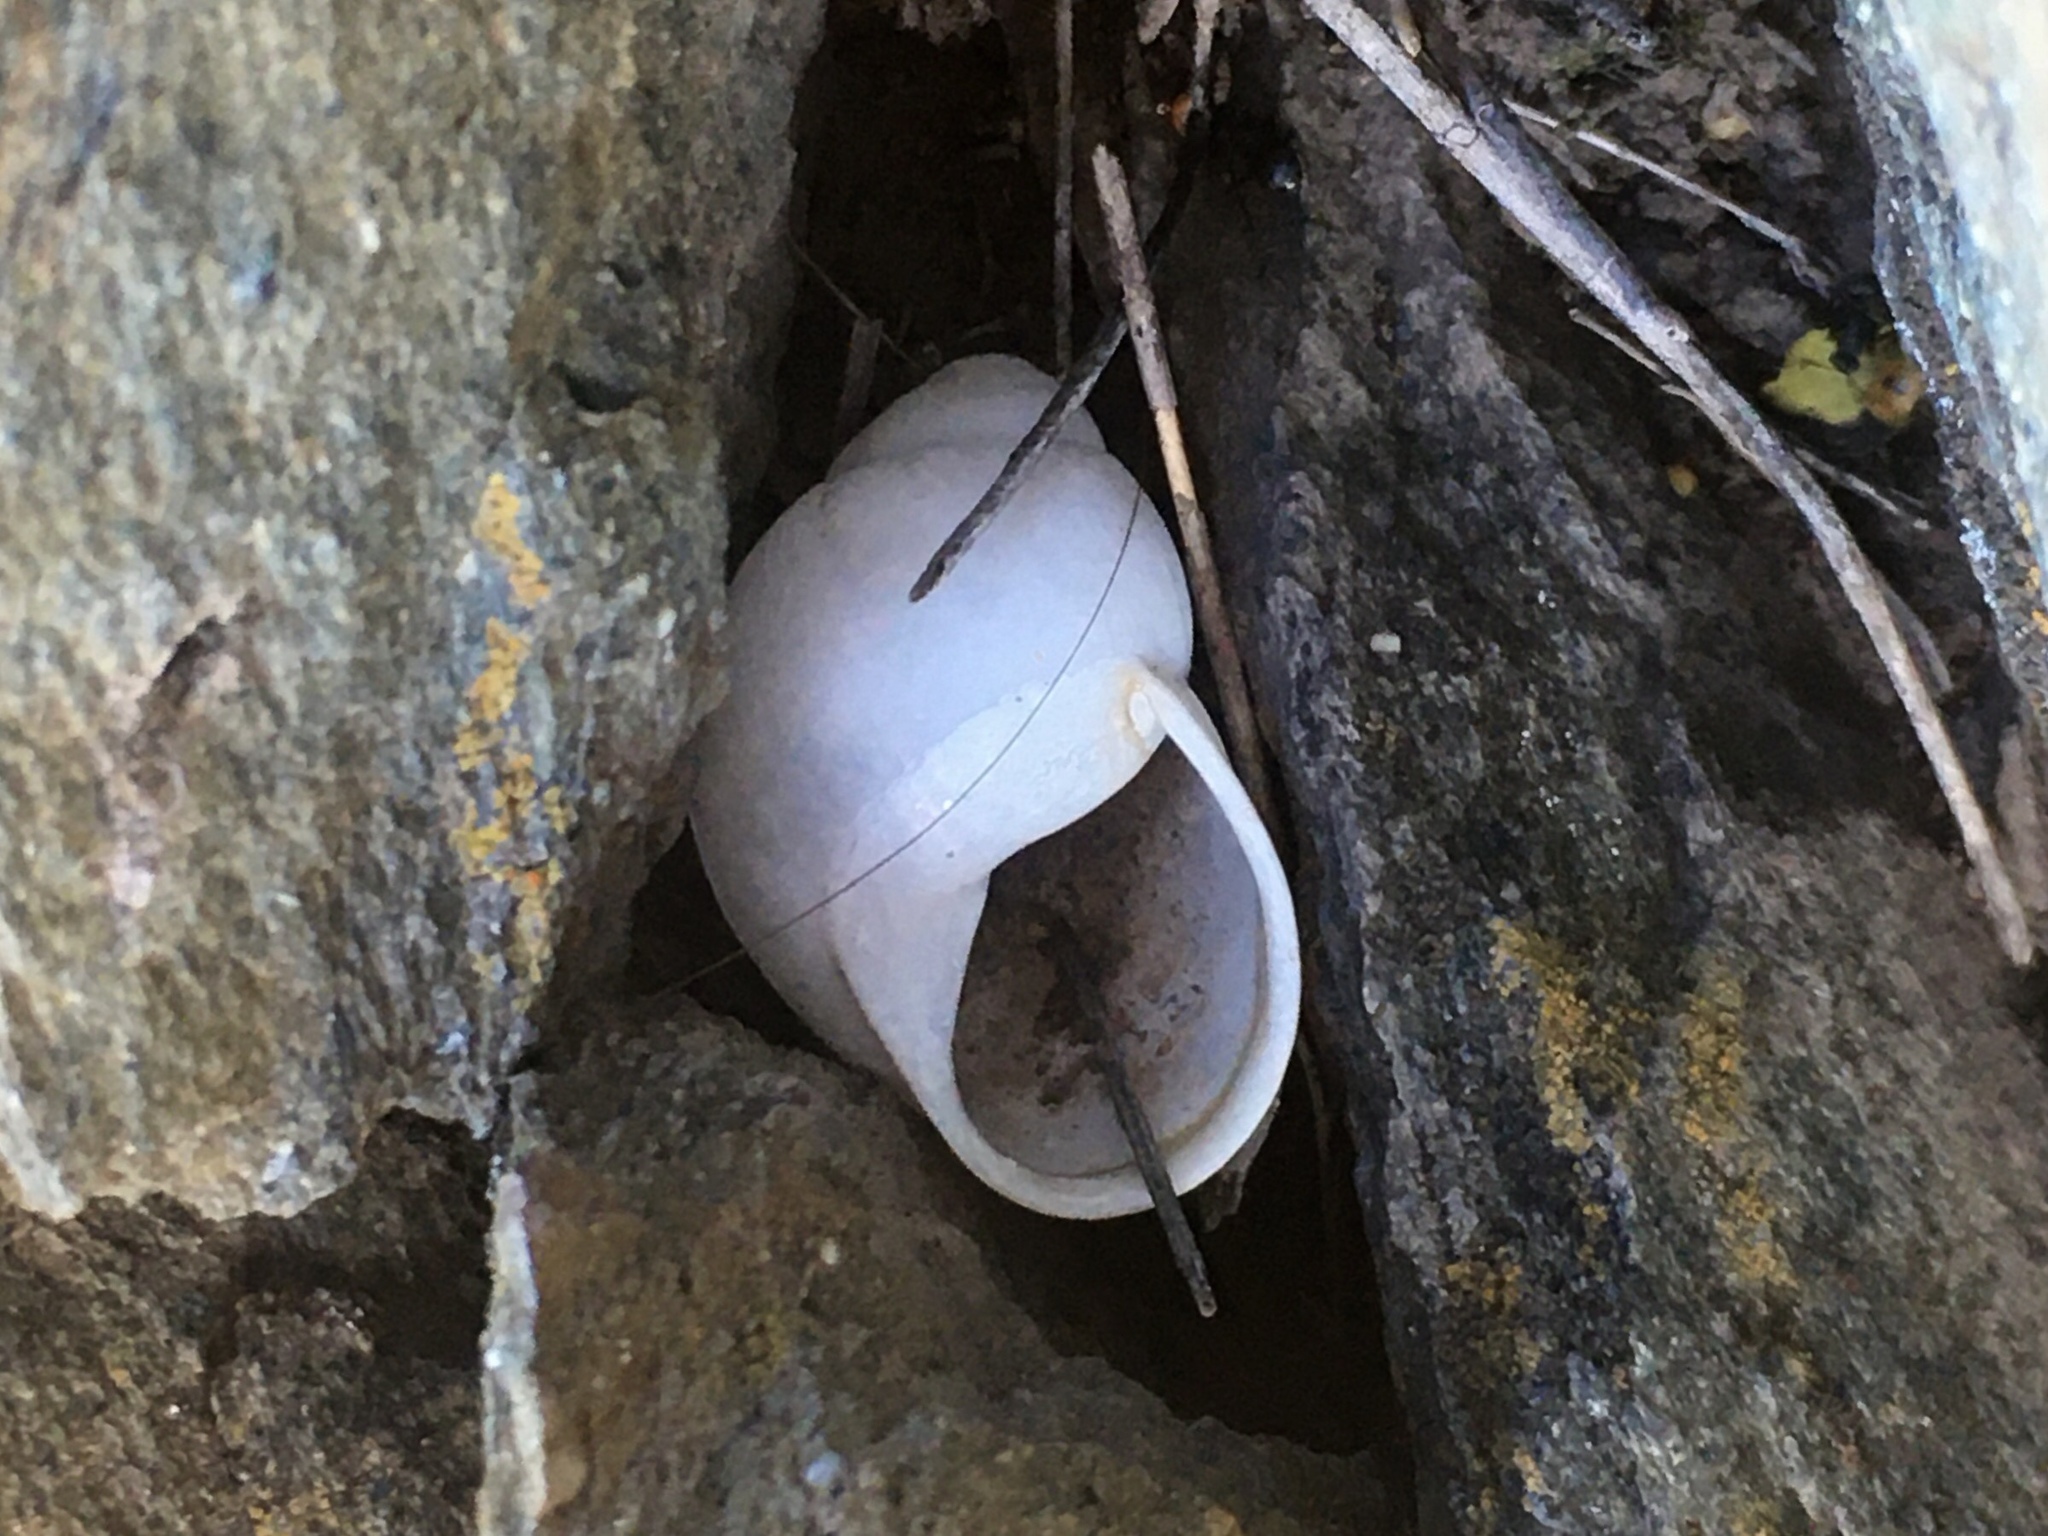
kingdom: Animalia
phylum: Mollusca
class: Gastropoda
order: Stylommatophora
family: Strophocheilidae
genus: Austroborus
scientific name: Austroborus dorbignyi
